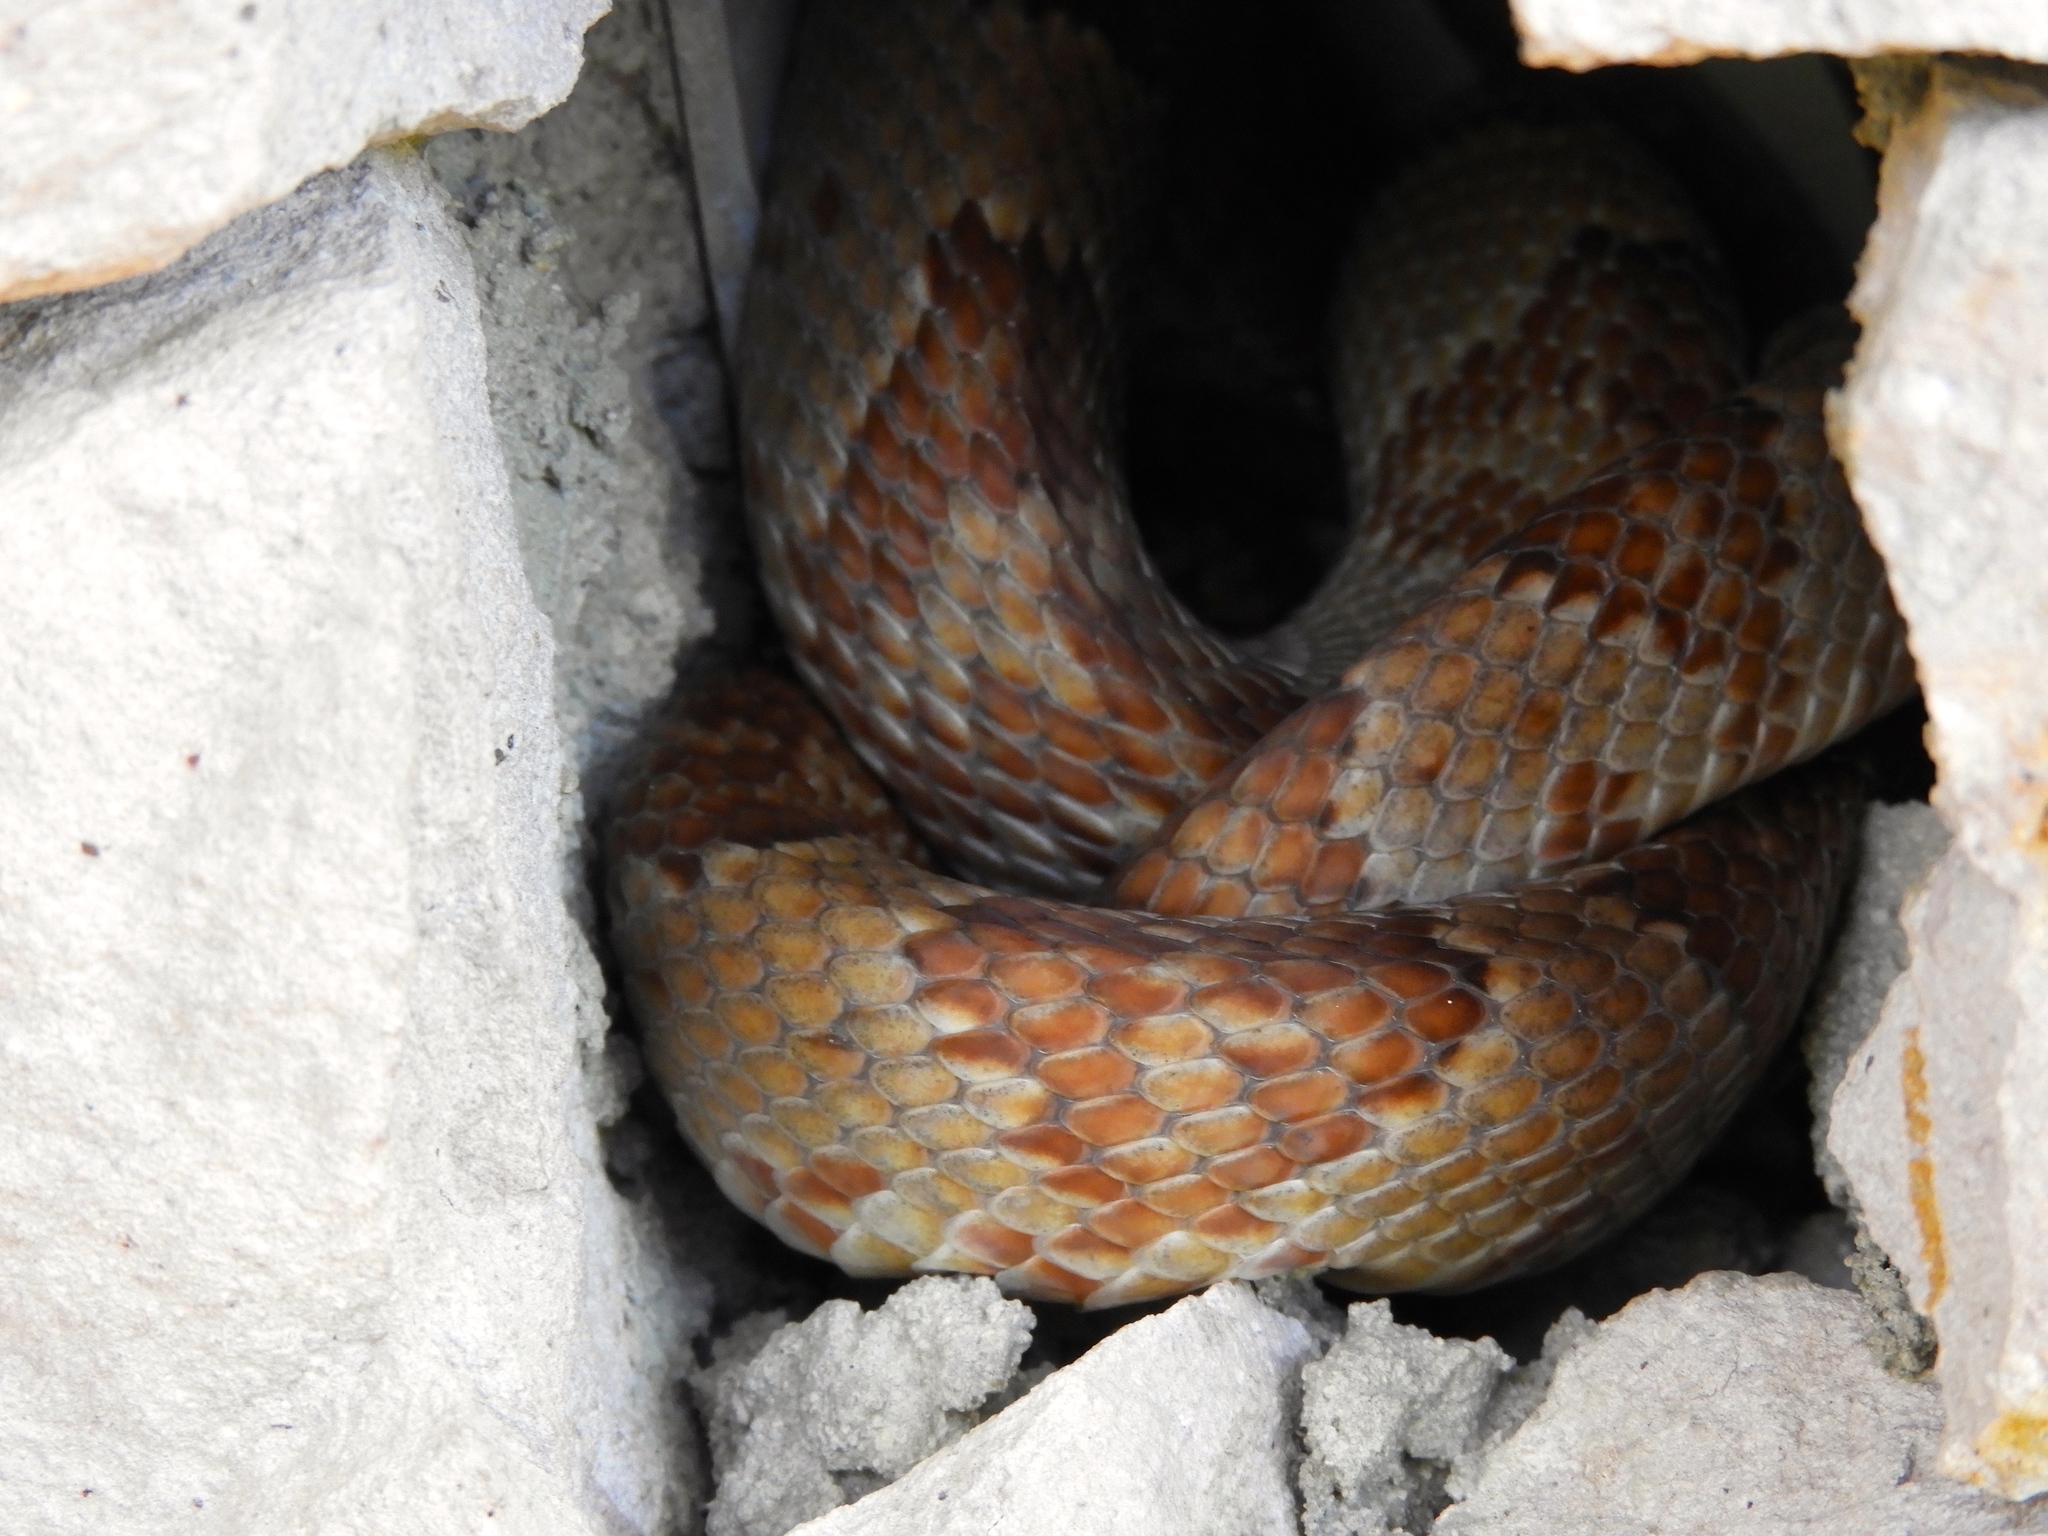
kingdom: Animalia
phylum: Chordata
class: Squamata
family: Colubridae
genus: Trimorphodon
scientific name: Trimorphodon paucimaculatus
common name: Sinaloan lyresnake
